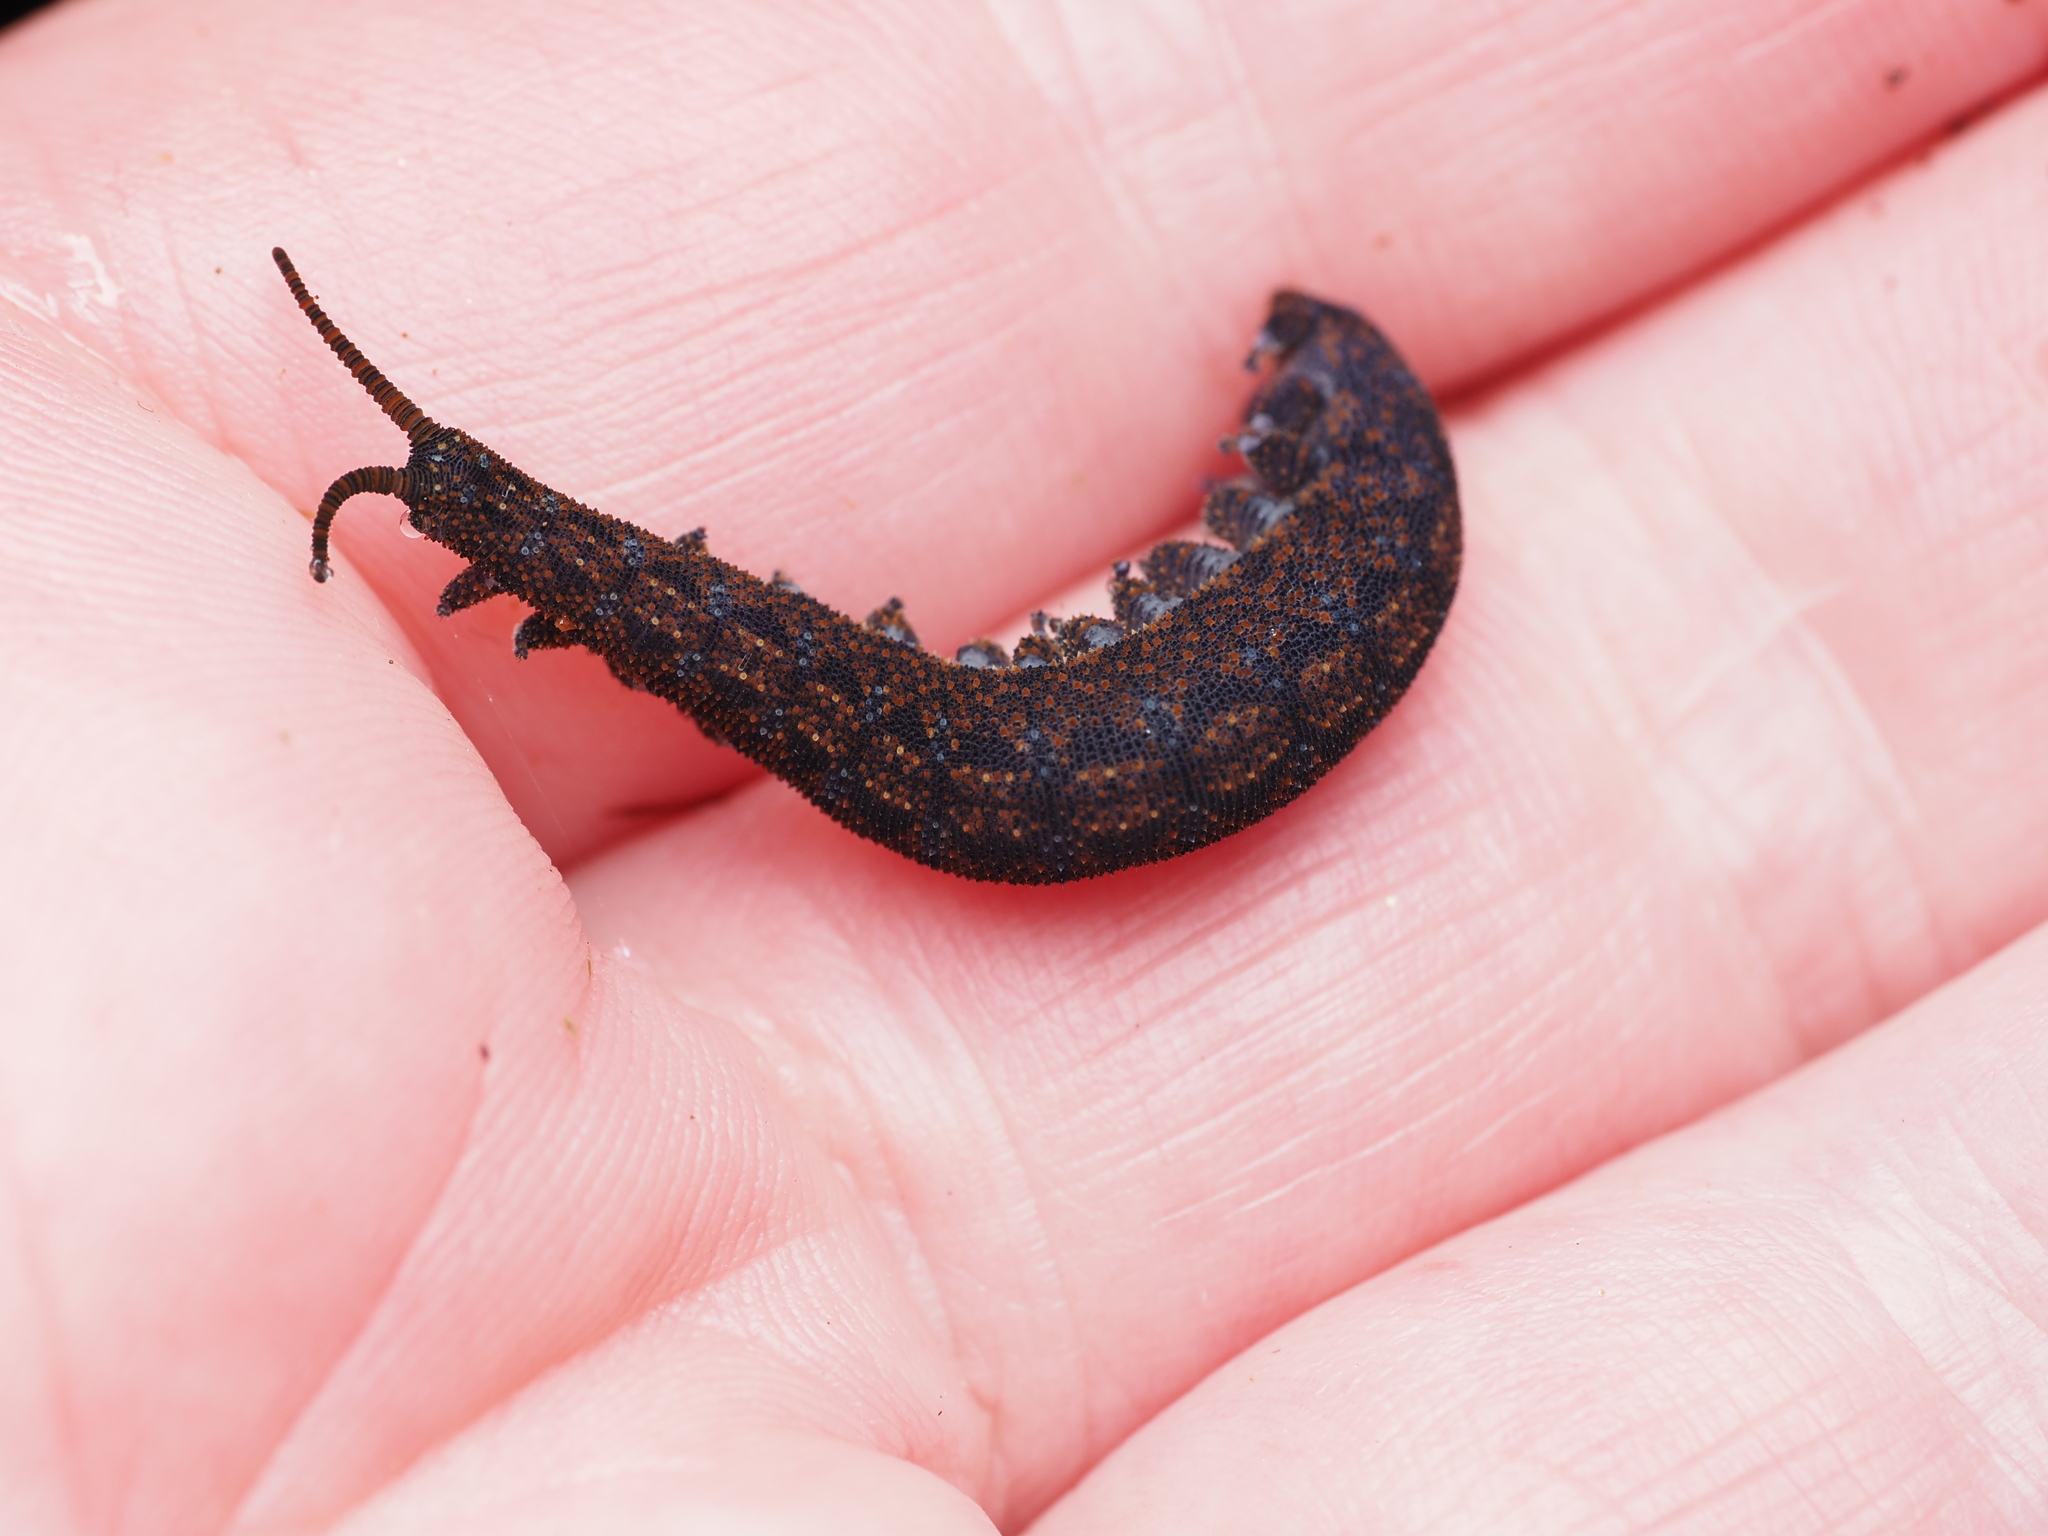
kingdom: Animalia
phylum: Onychophora
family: Peripatopsidae
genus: Ooperipatellus
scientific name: Ooperipatellus viridimaculatus
